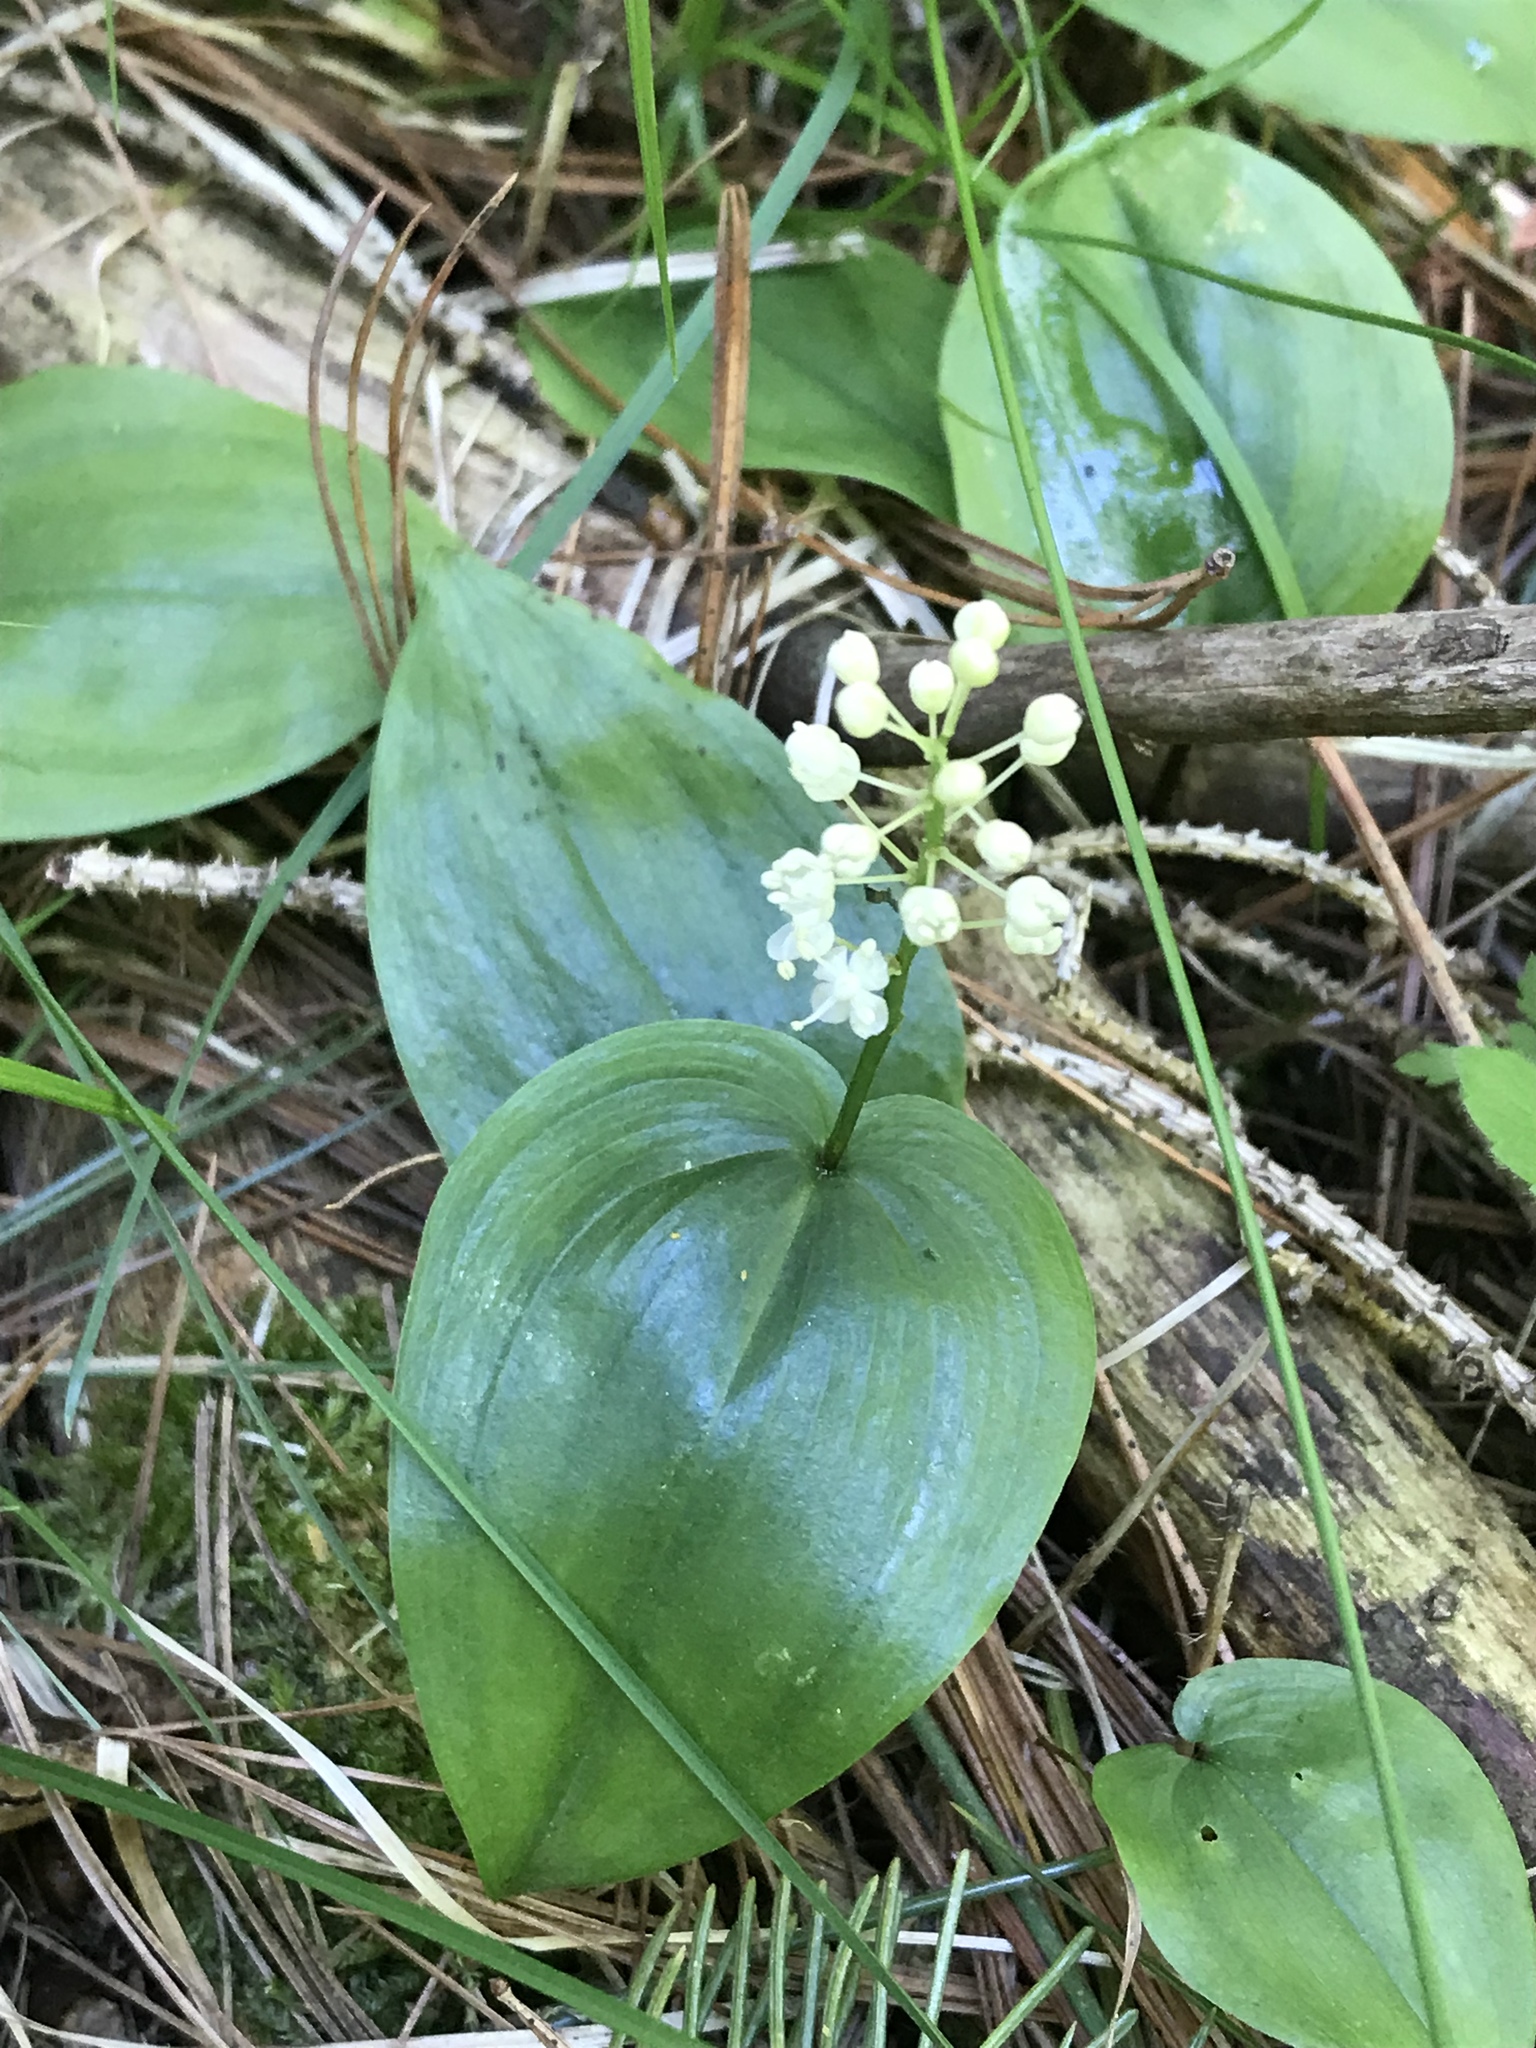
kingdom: Plantae
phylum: Tracheophyta
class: Liliopsida
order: Asparagales
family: Asparagaceae
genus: Maianthemum
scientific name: Maianthemum canadense
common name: False lily-of-the-valley
